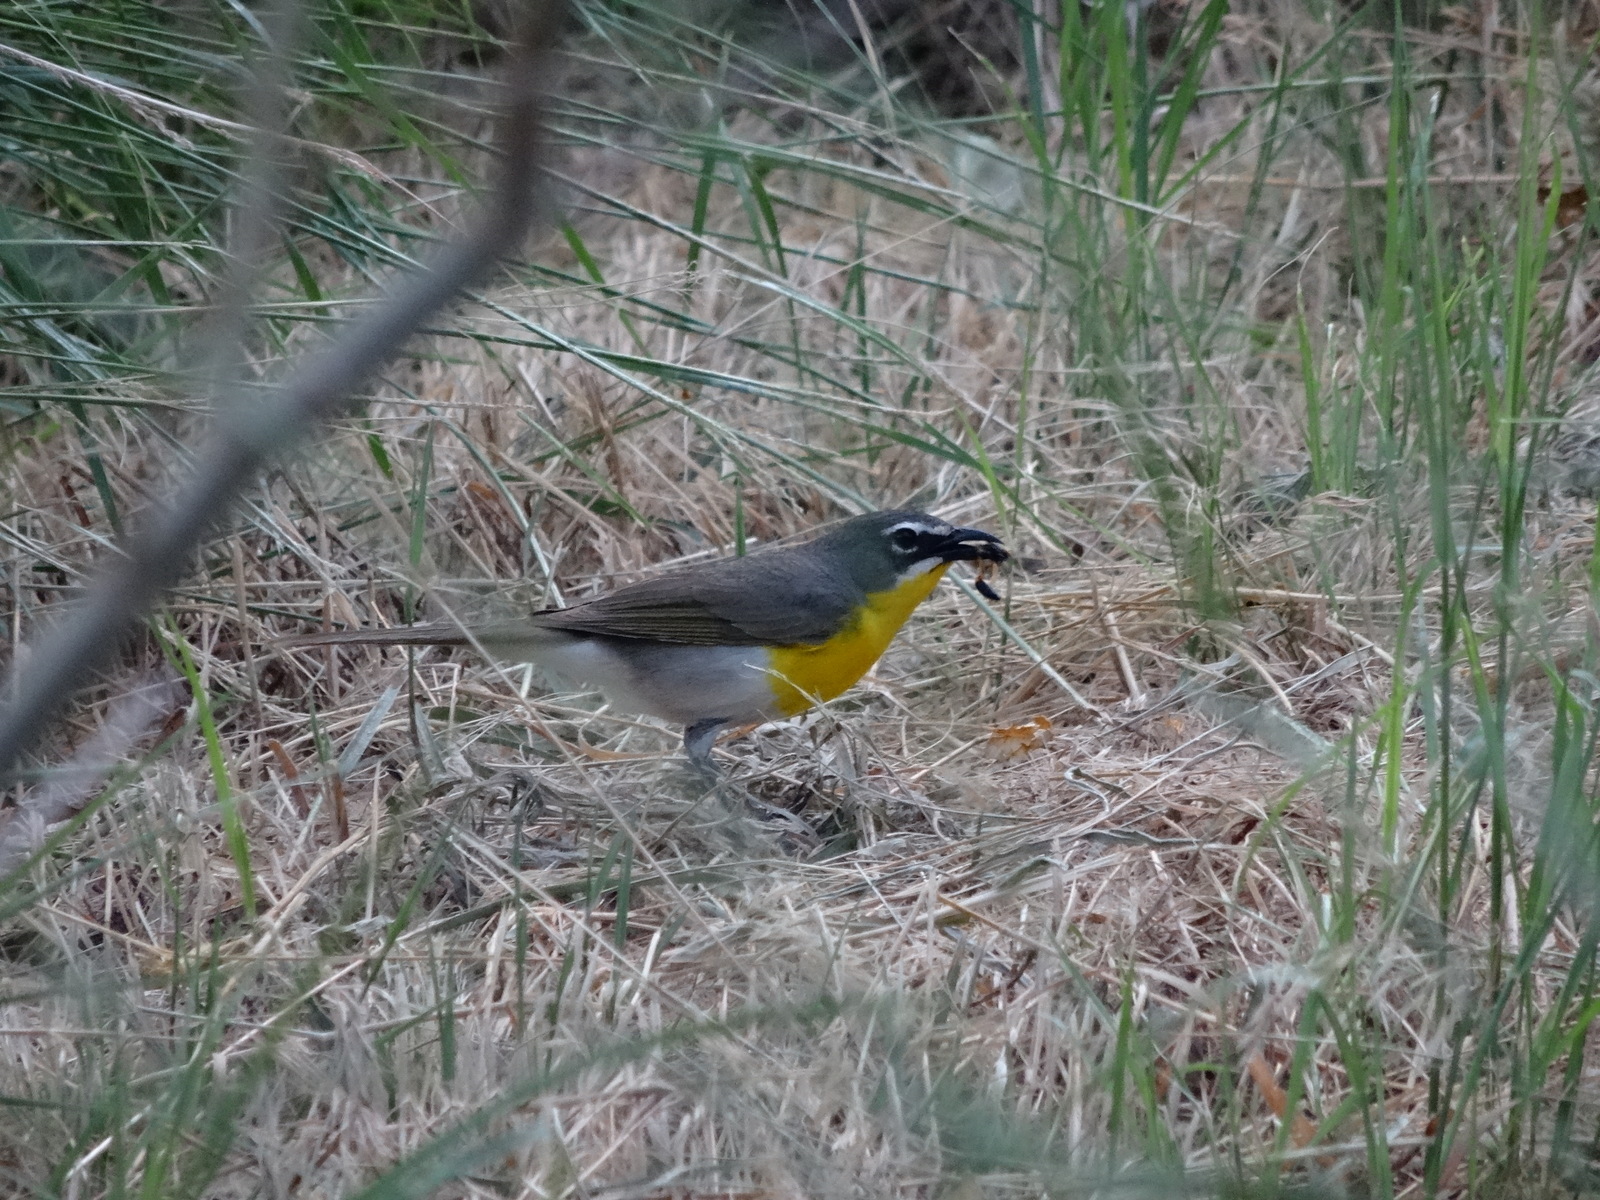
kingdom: Animalia
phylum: Chordata
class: Aves
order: Passeriformes
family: Parulidae
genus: Icteria
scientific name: Icteria virens
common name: Yellow-breasted chat
